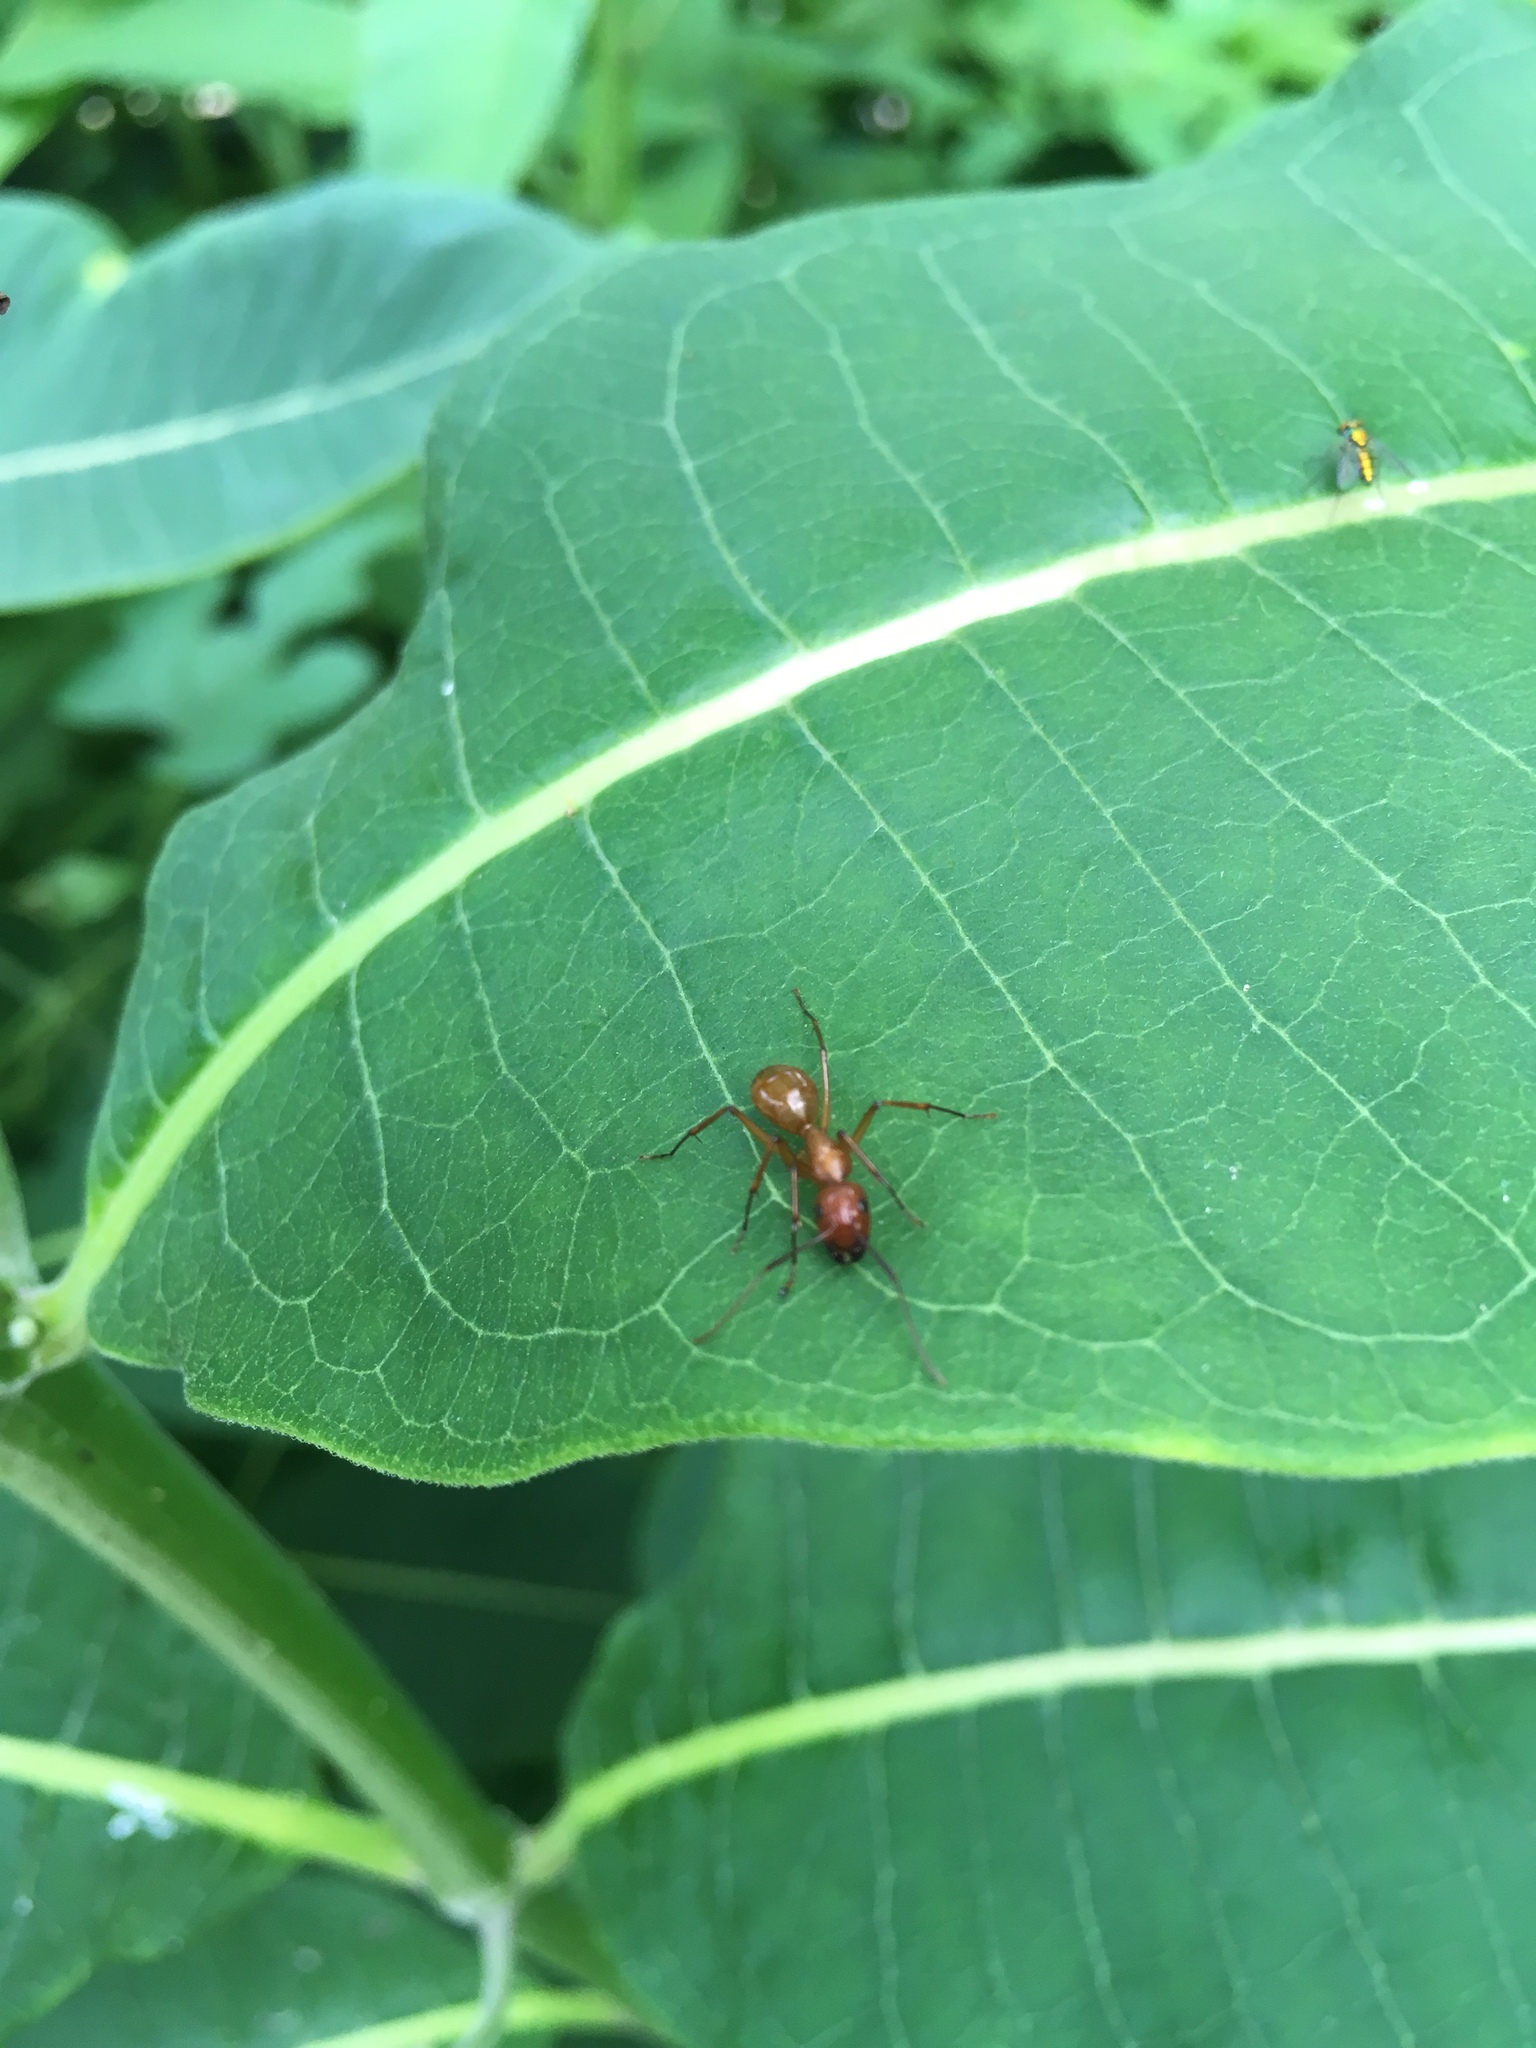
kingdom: Animalia
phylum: Arthropoda
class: Insecta
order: Hymenoptera
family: Formicidae
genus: Camponotus
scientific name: Camponotus castaneus
